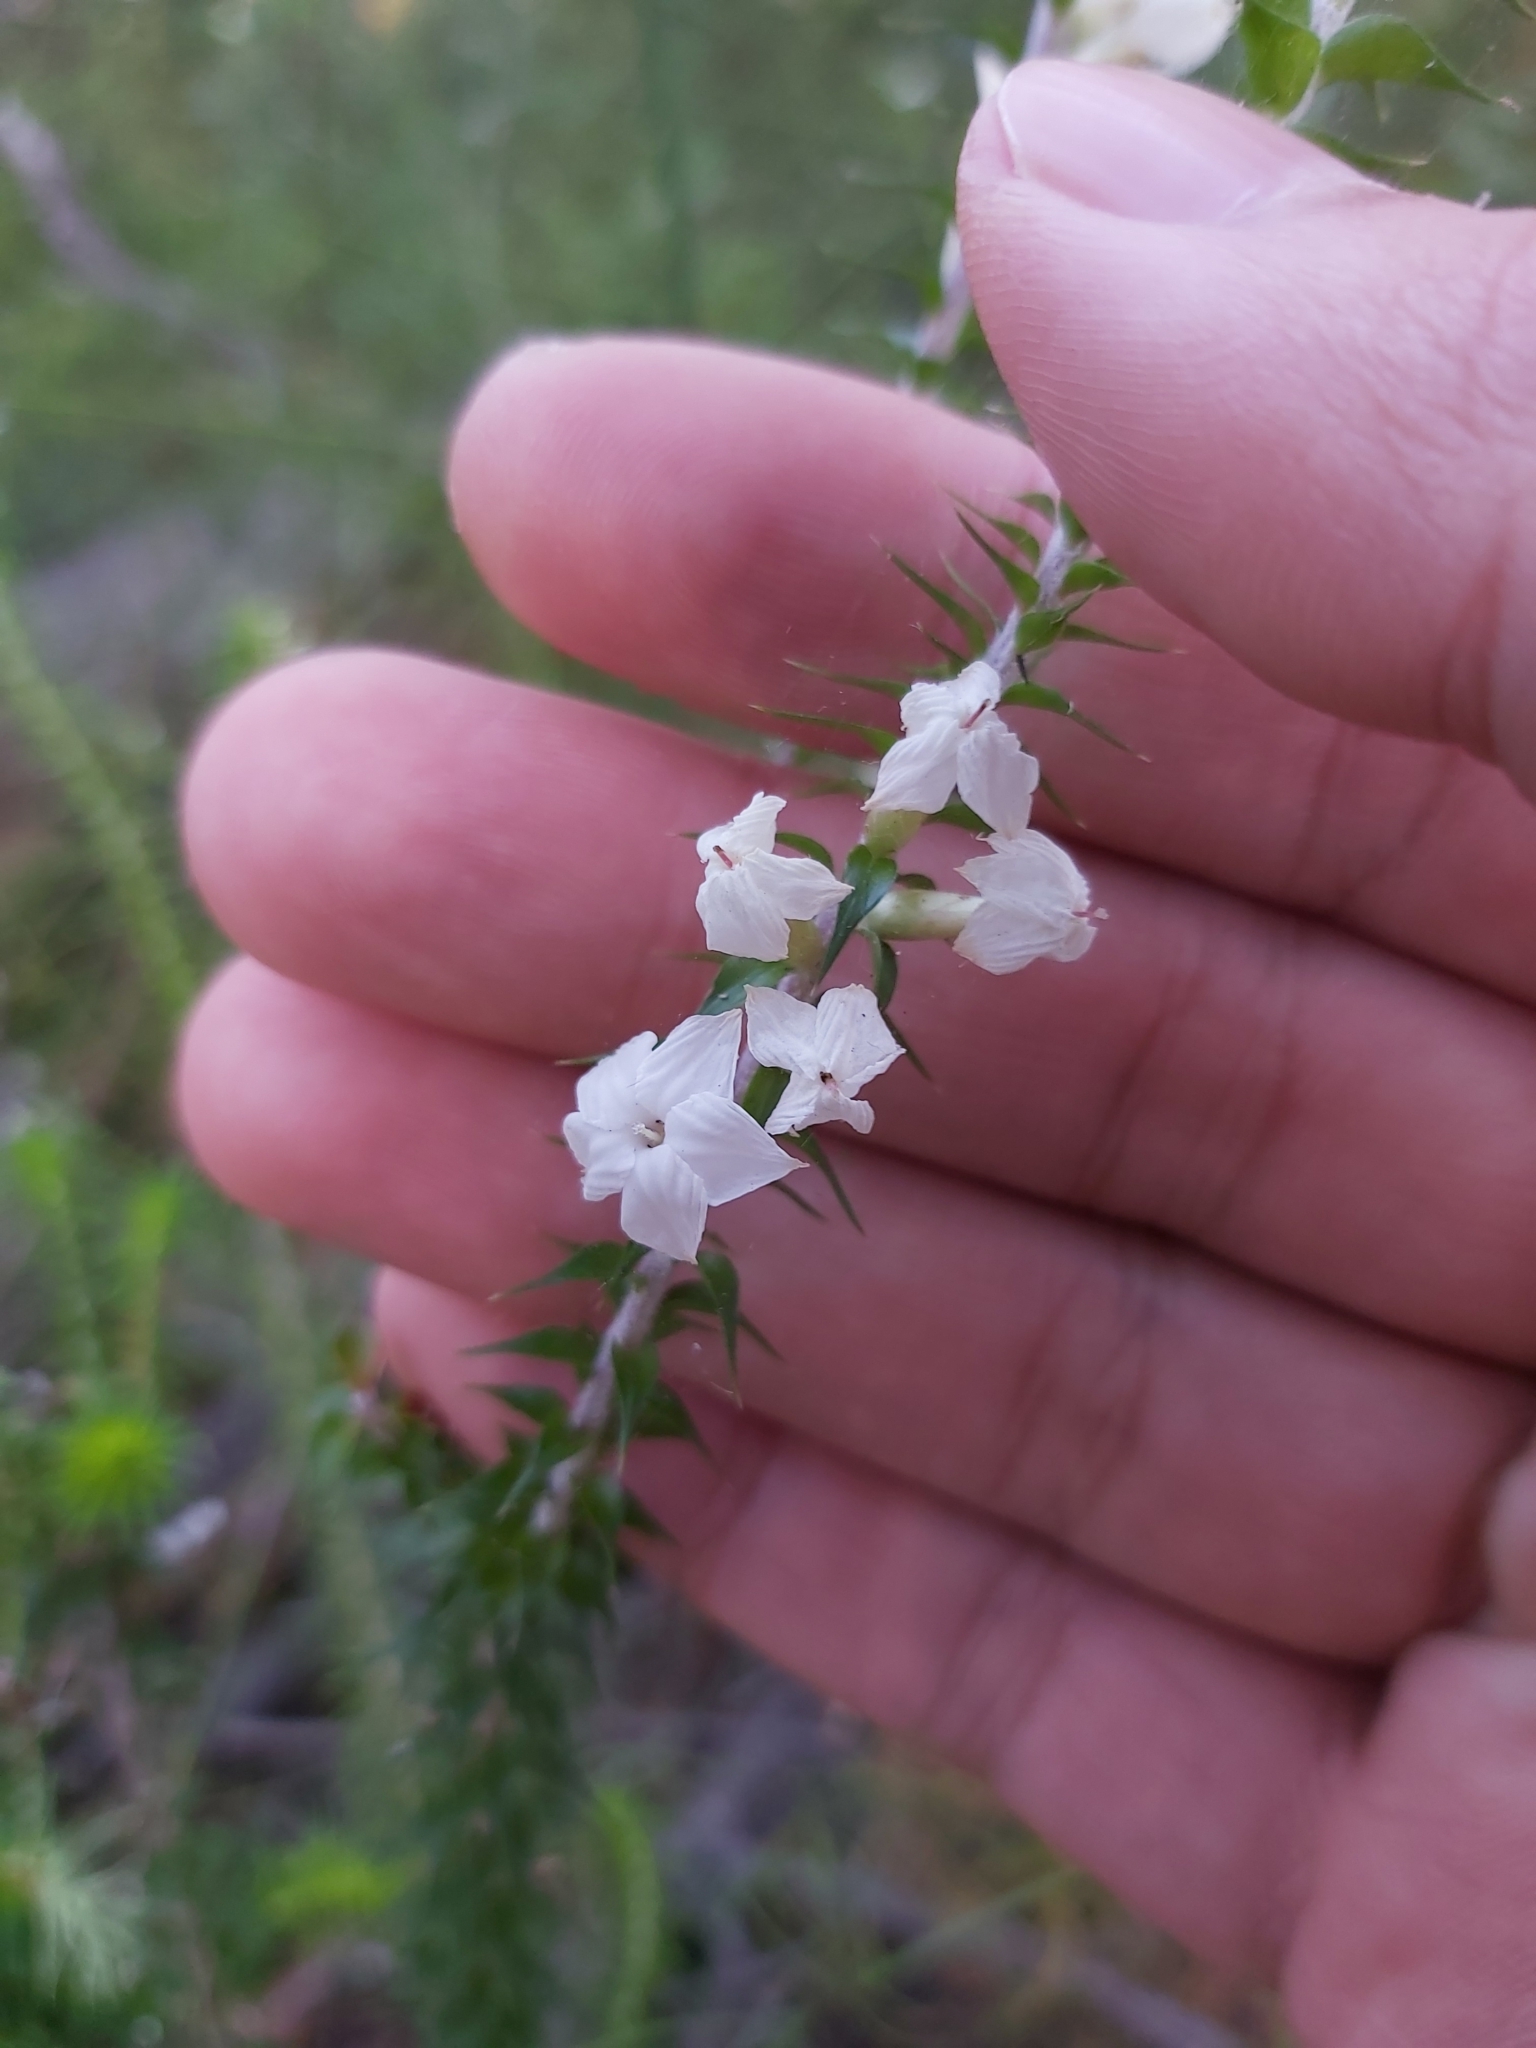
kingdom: Plantae
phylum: Tracheophyta
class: Magnoliopsida
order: Ericales
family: Ericaceae
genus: Woollsia
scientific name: Woollsia pungens
